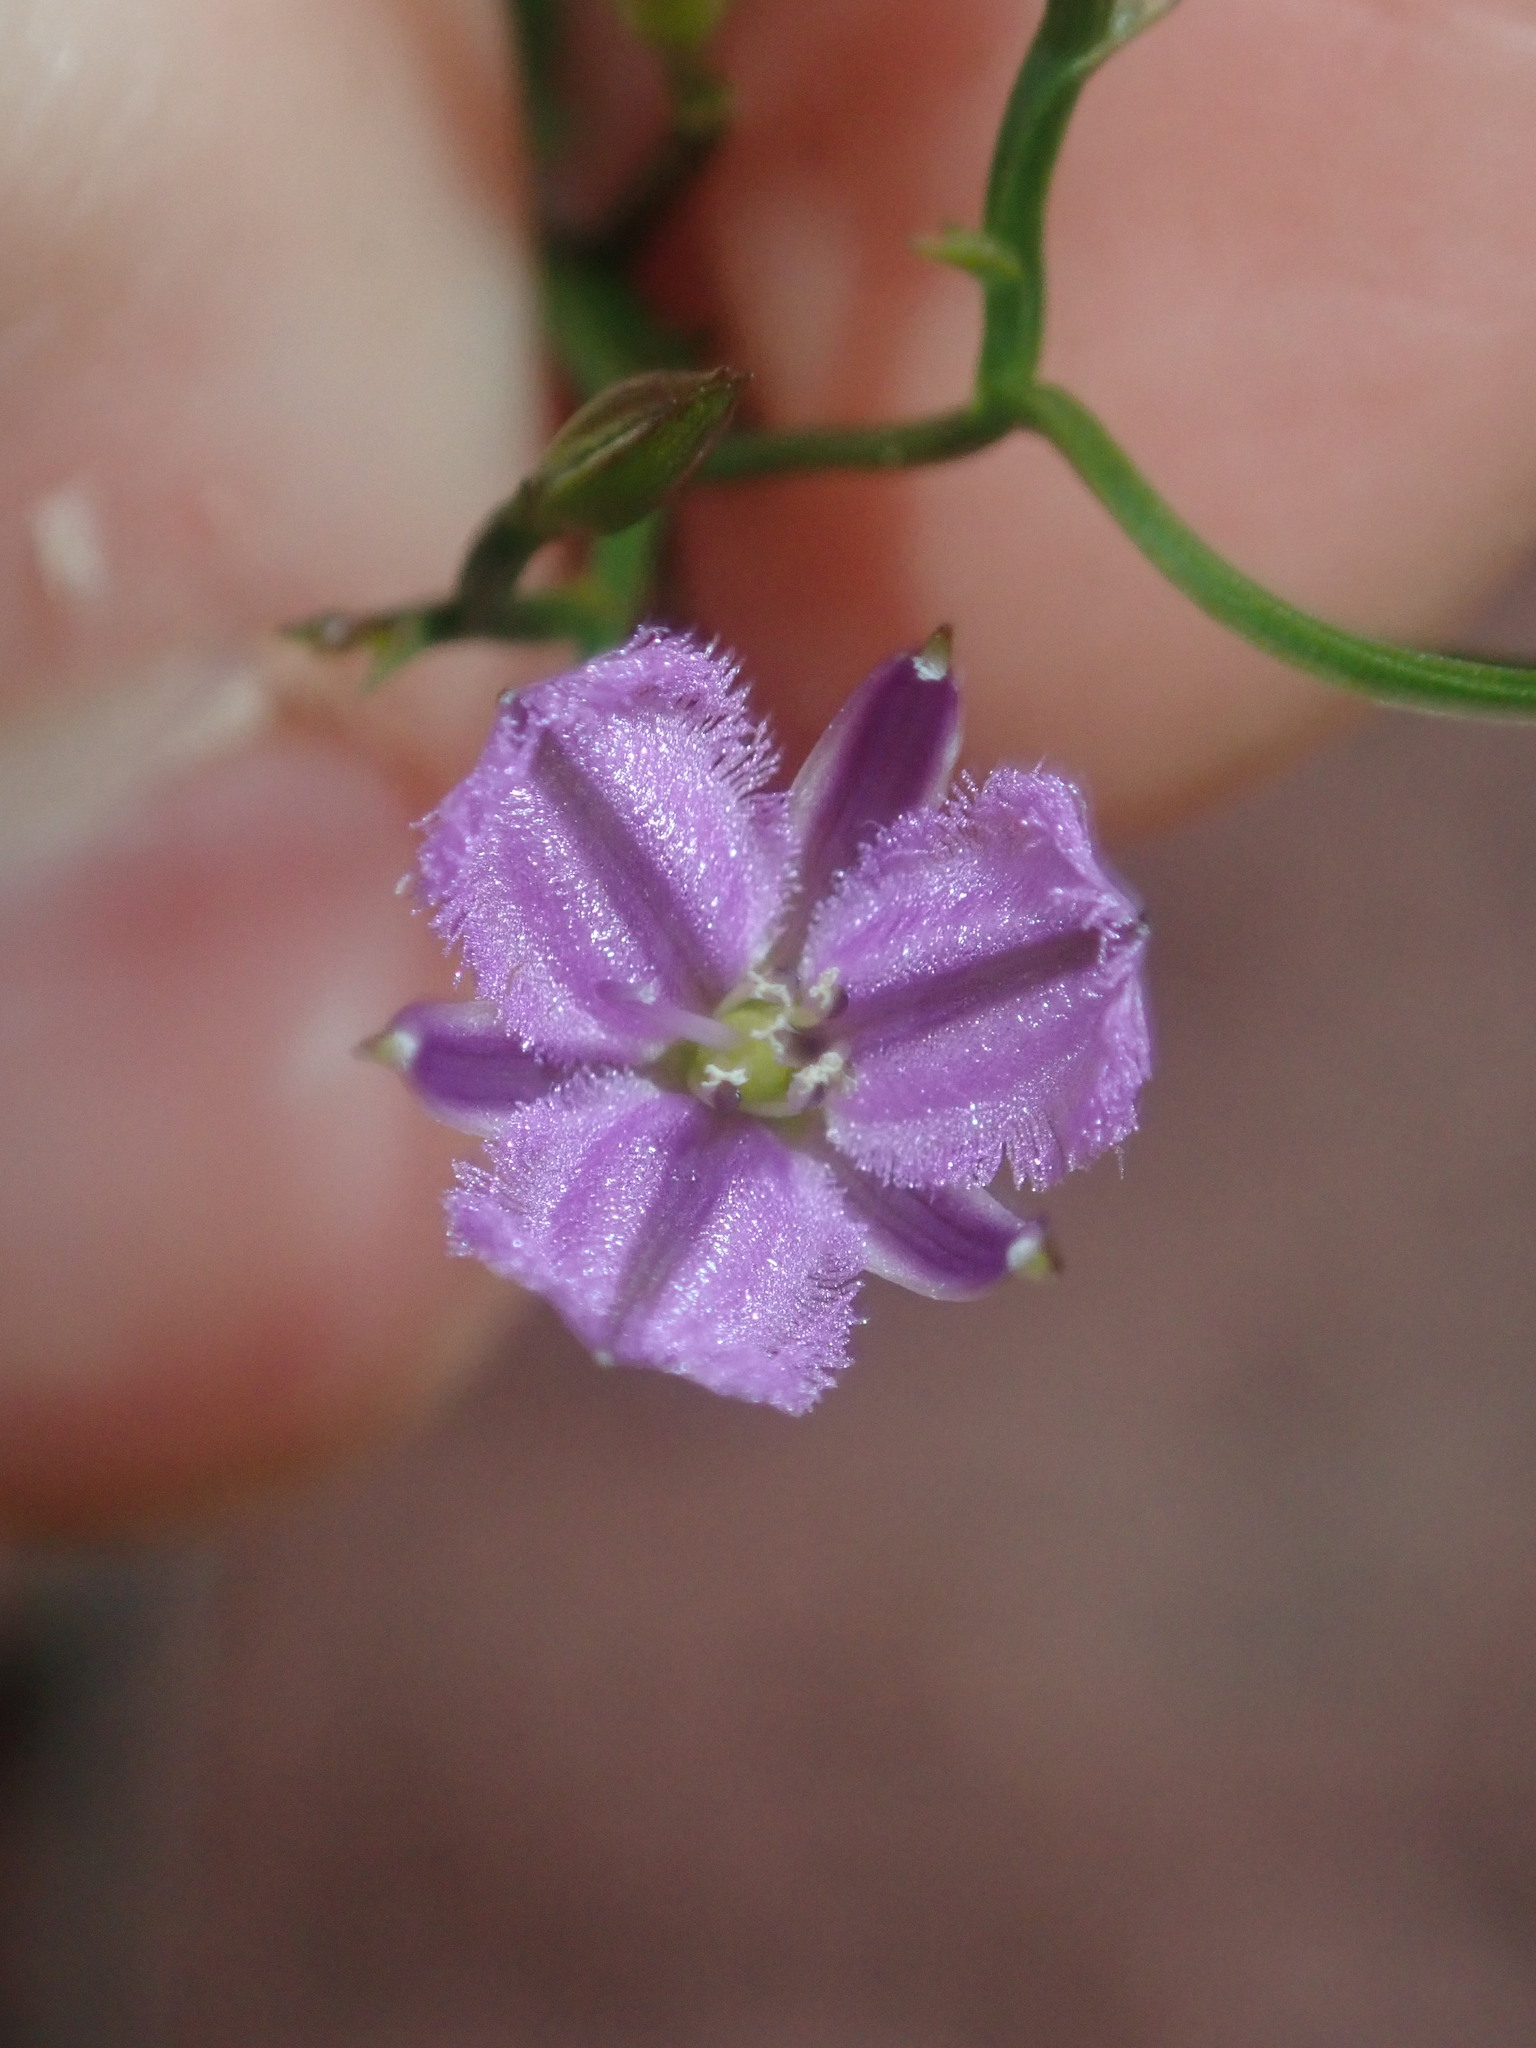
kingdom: Plantae
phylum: Tracheophyta
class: Liliopsida
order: Asparagales
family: Asparagaceae
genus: Thysanotus
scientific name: Thysanotus patersonii
